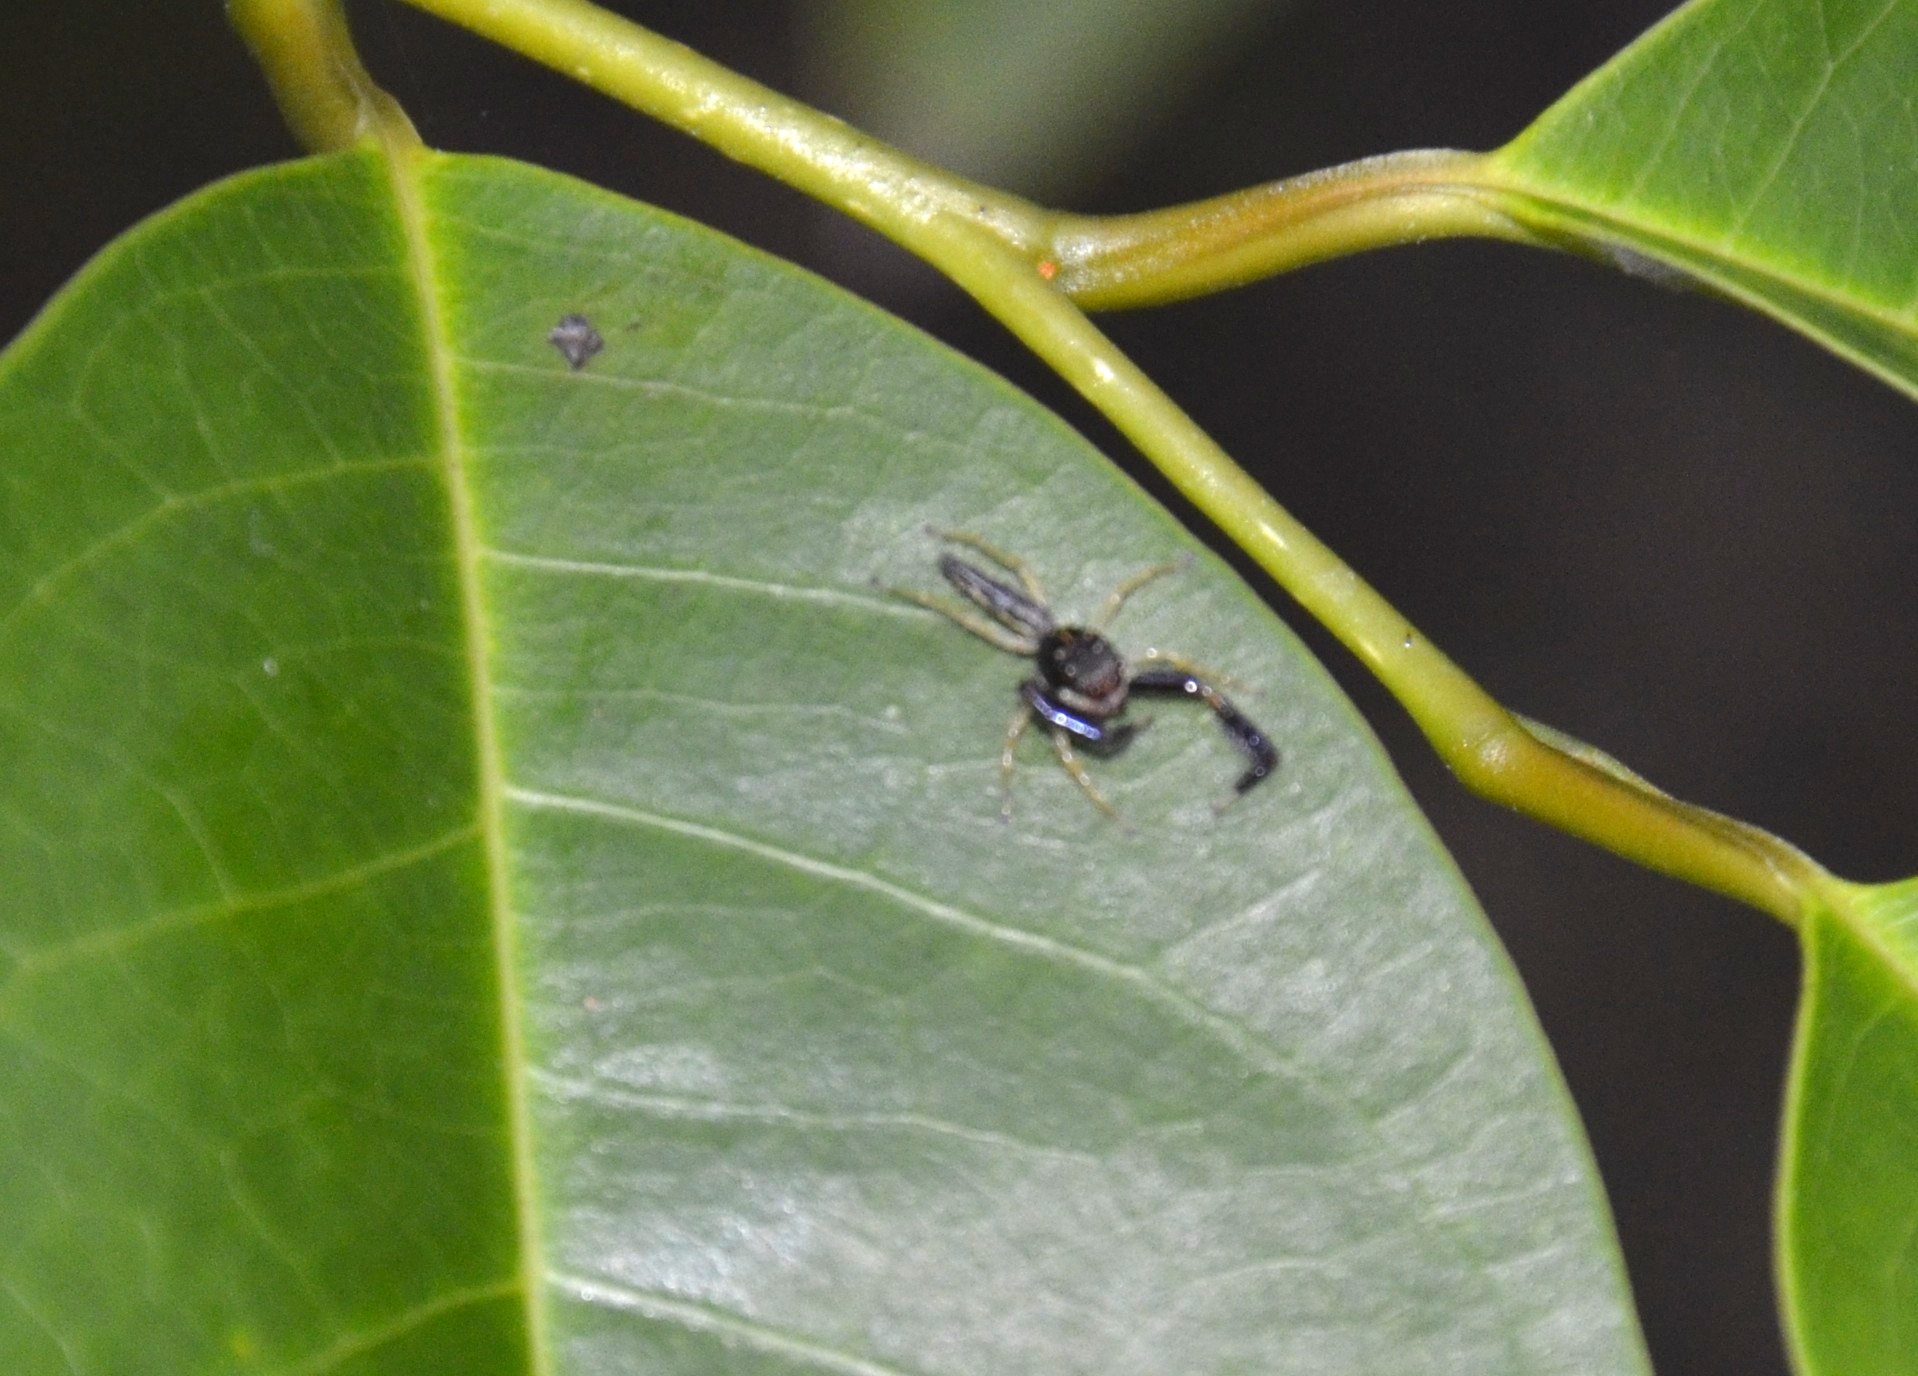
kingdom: Animalia
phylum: Arthropoda
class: Arachnida
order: Araneae
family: Salticidae
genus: Indopadilla
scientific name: Indopadilla insularis
